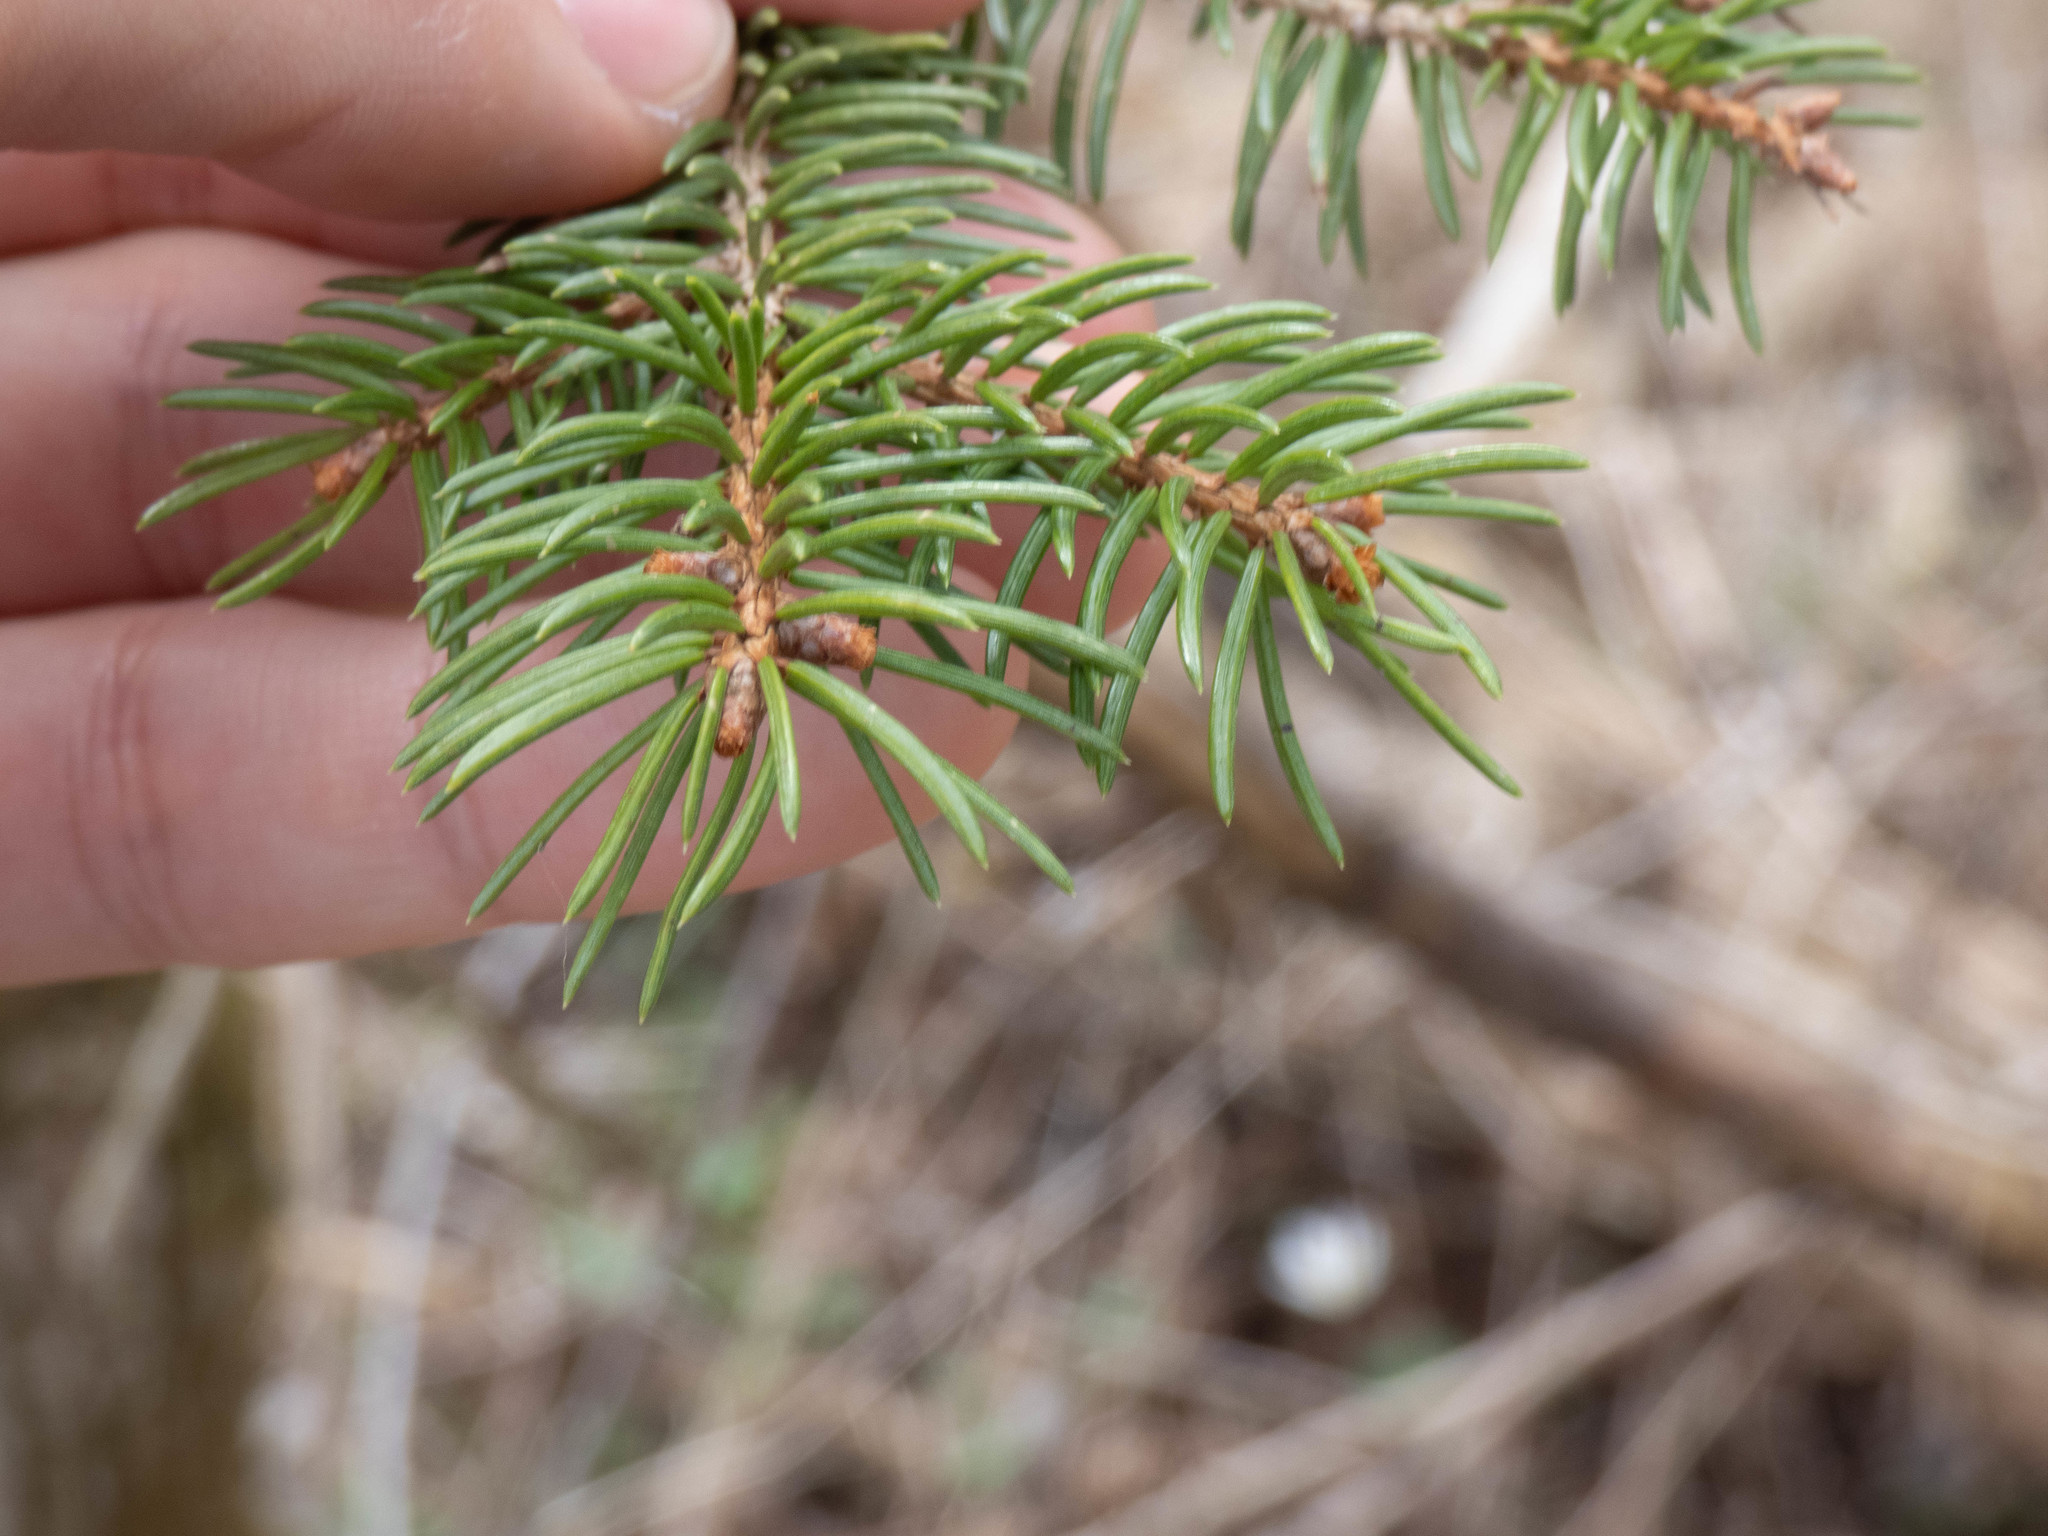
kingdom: Plantae
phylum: Tracheophyta
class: Pinopsida
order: Pinales
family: Pinaceae
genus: Picea
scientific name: Picea abies
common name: Norway spruce
